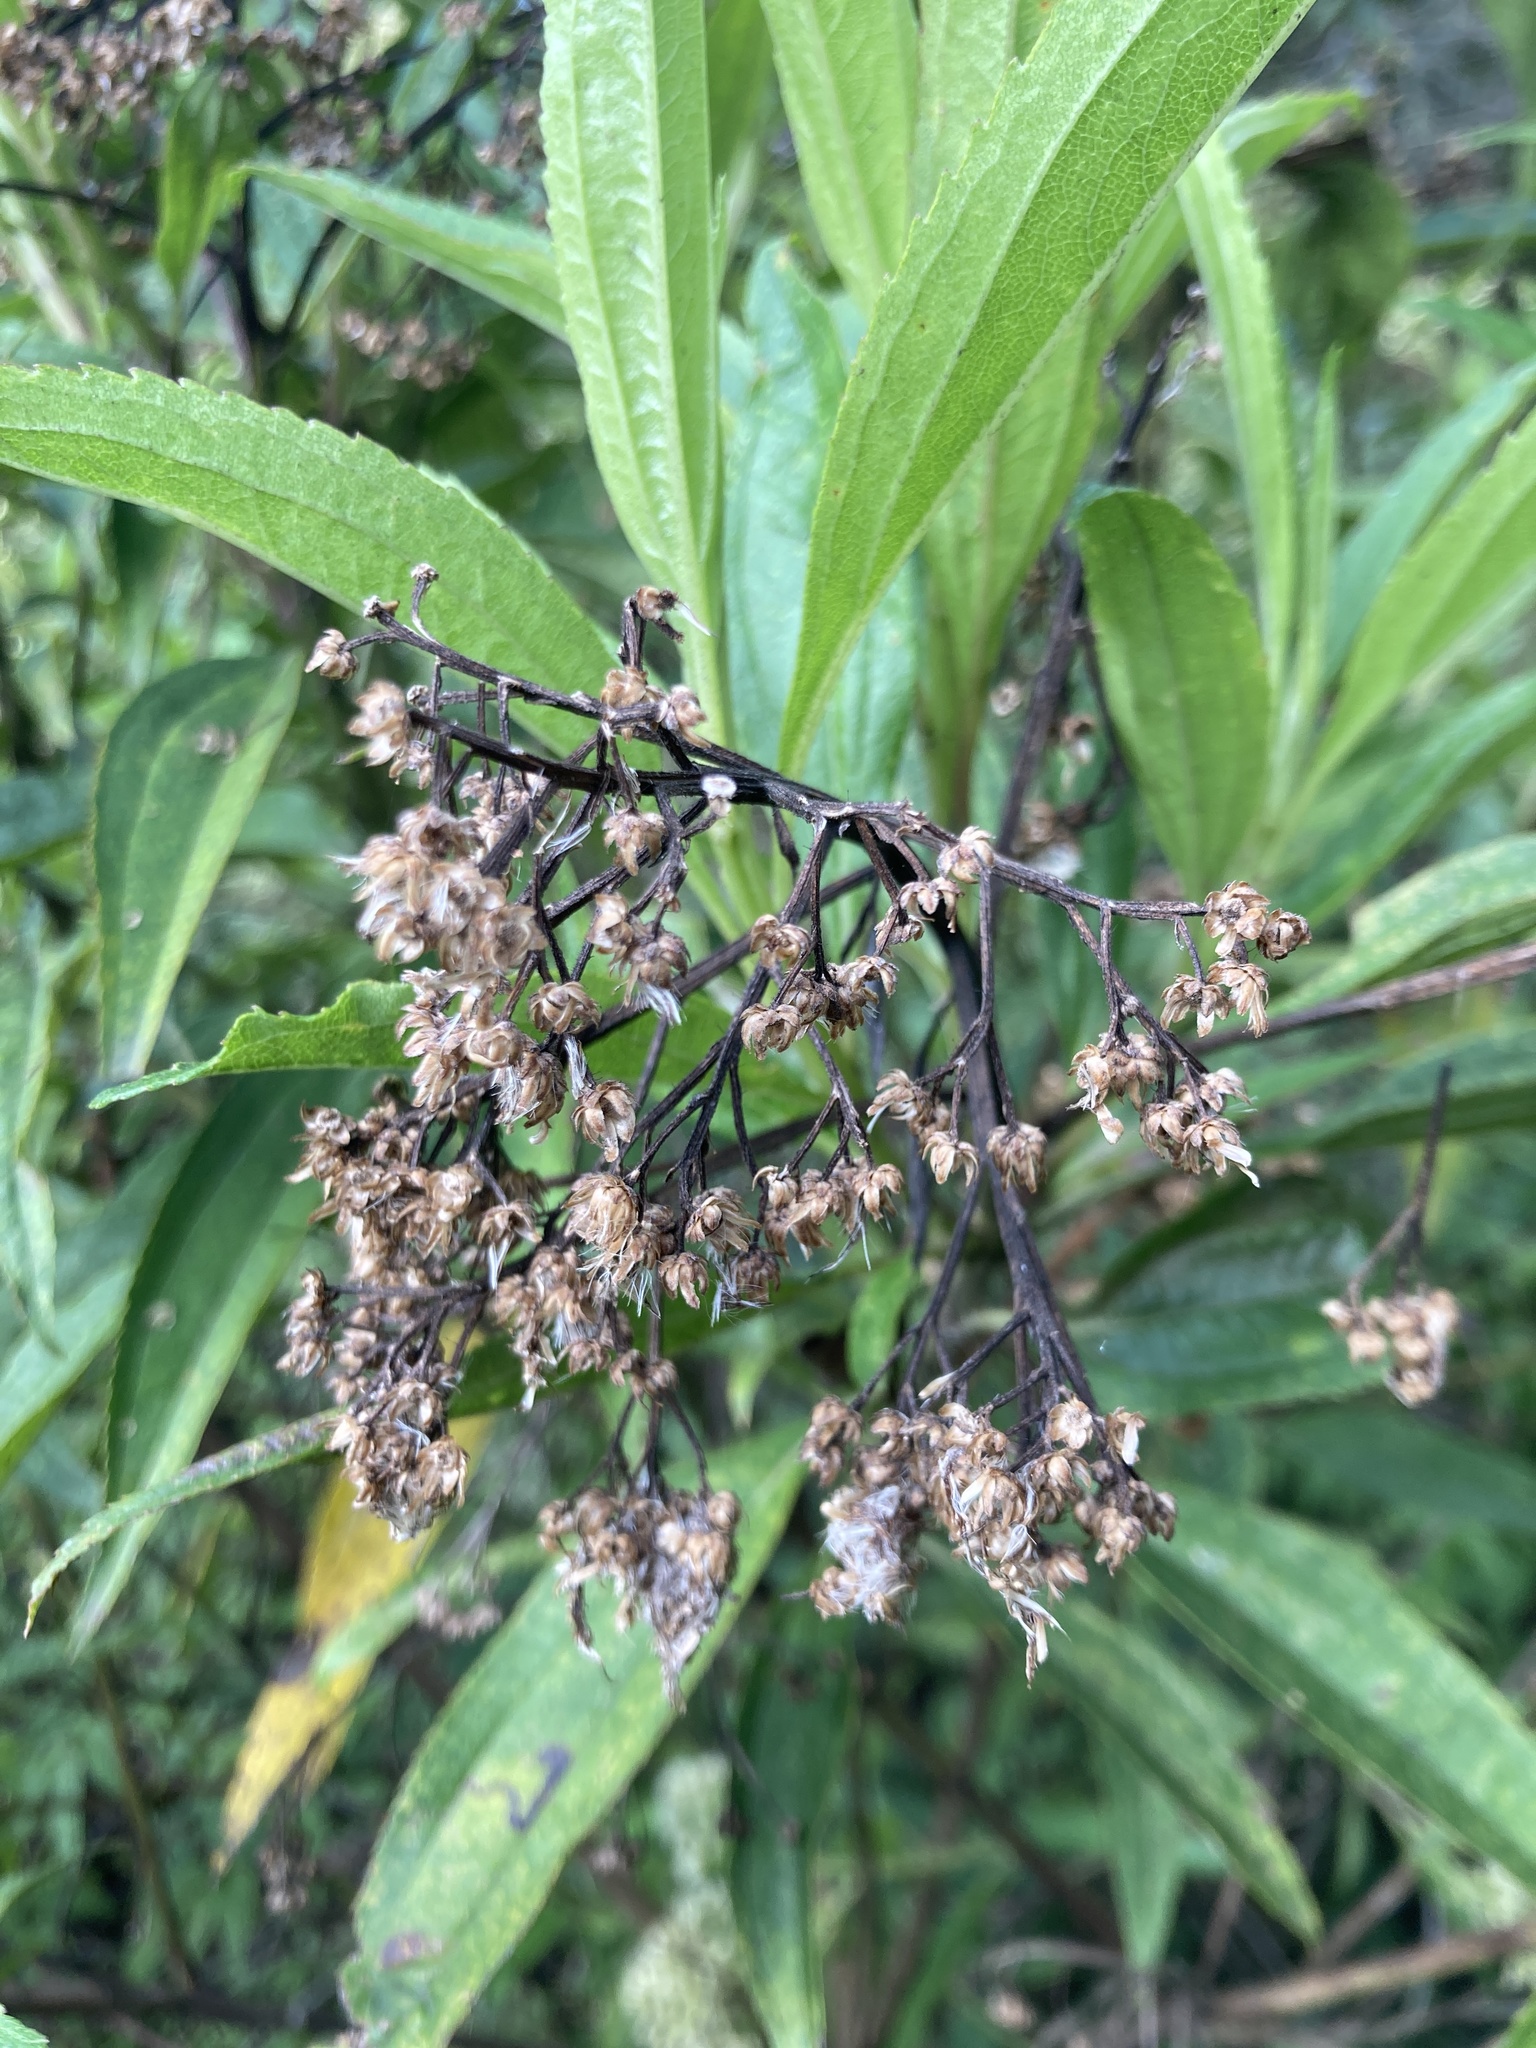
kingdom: Plantae
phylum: Tracheophyta
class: Magnoliopsida
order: Asterales
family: Asteraceae
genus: Baccharis
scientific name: Baccharis latifolia
